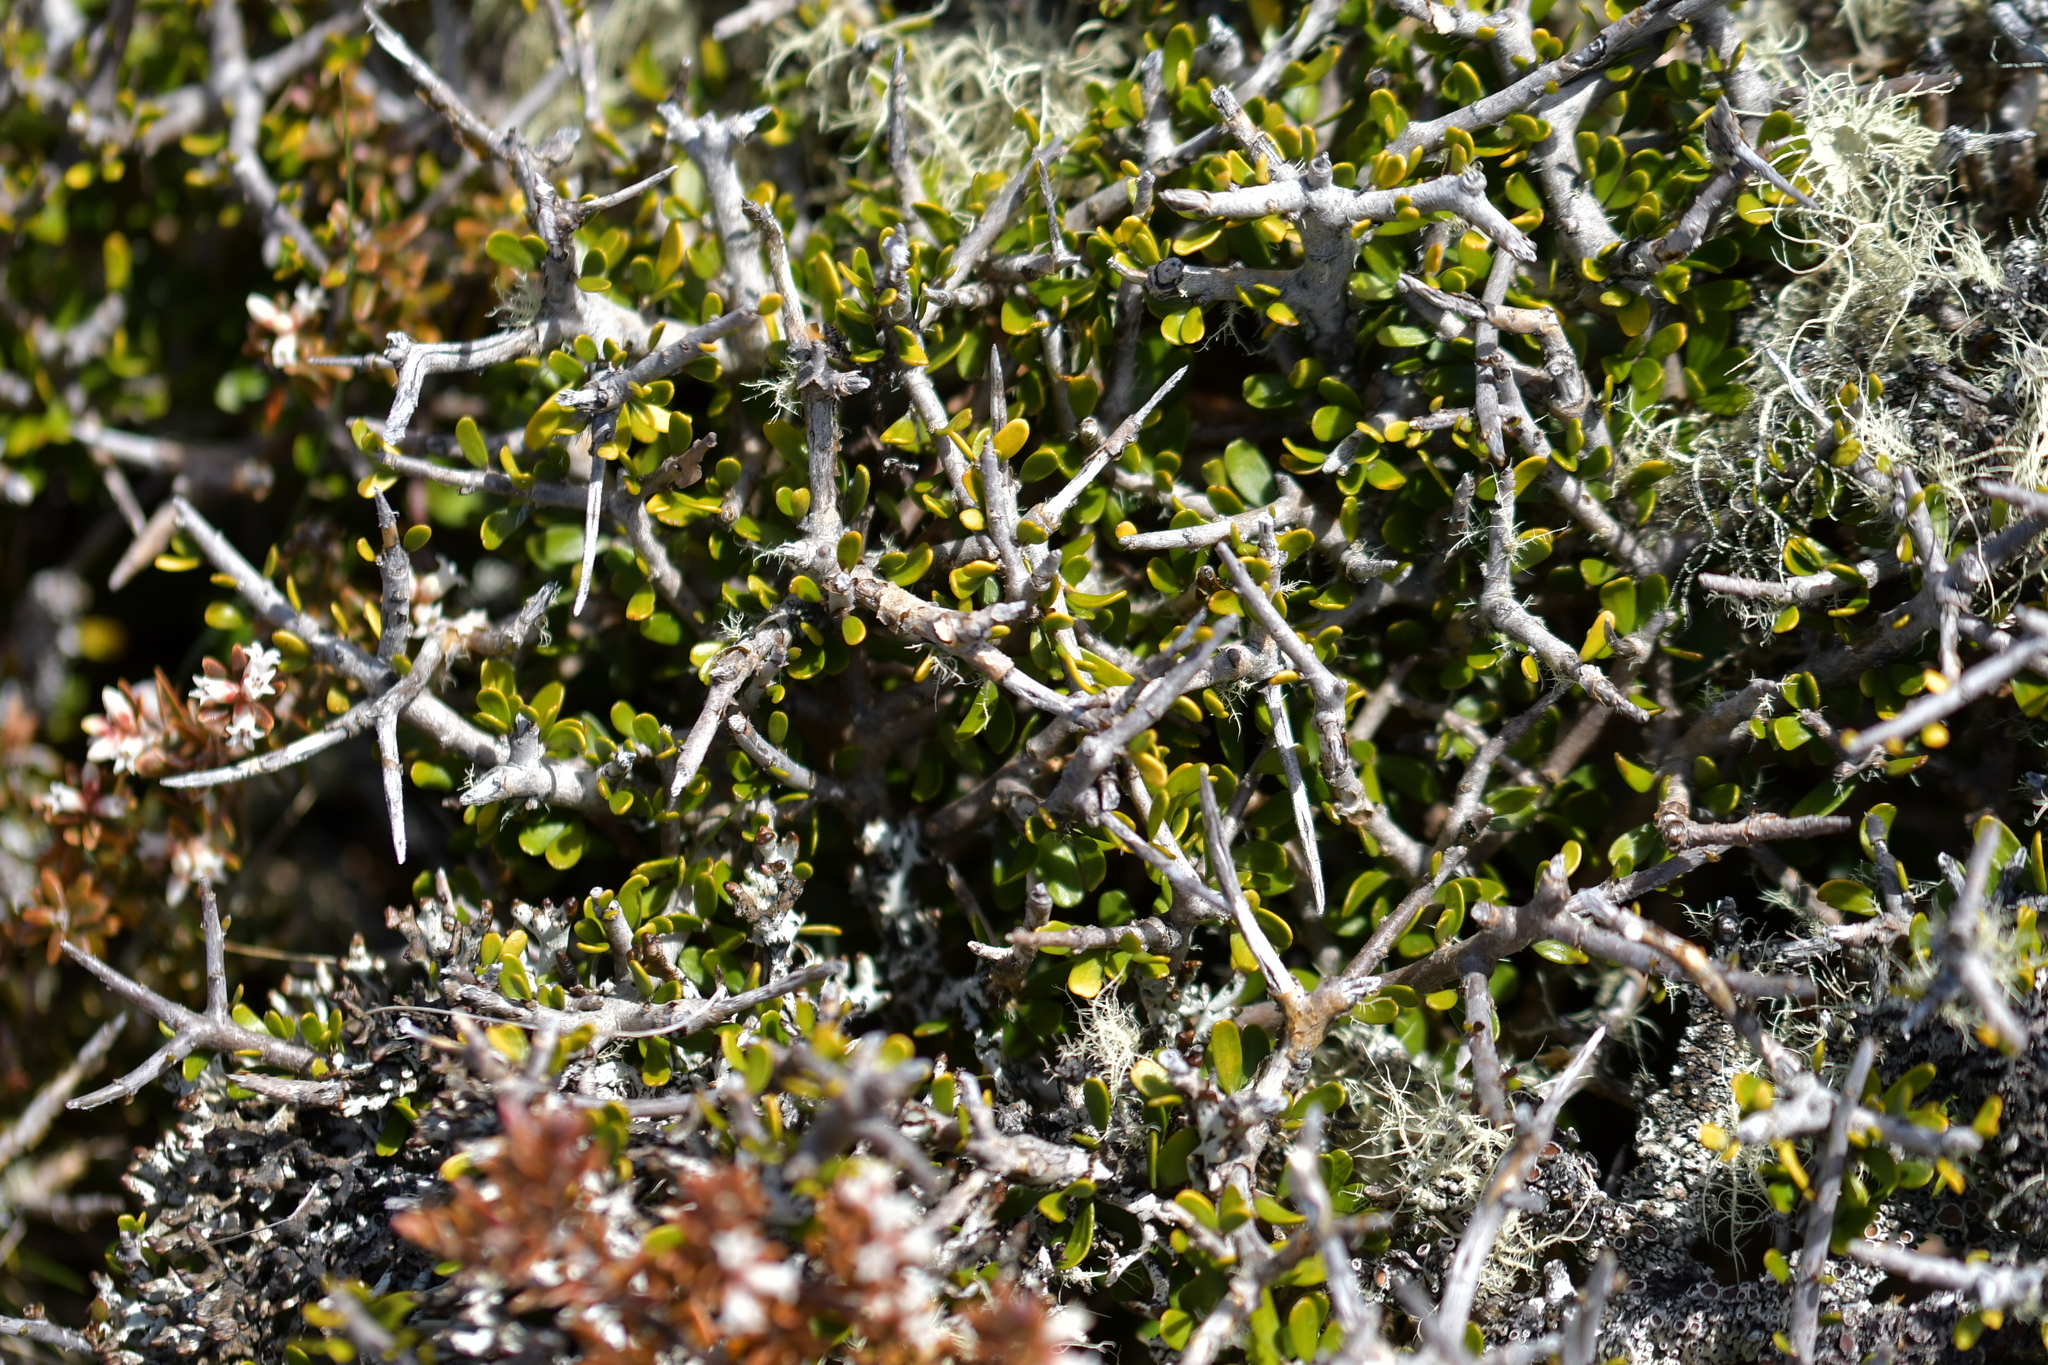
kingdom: Plantae
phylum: Tracheophyta
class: Magnoliopsida
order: Malpighiales
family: Violaceae
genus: Melicytus
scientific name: Melicytus alpinus
